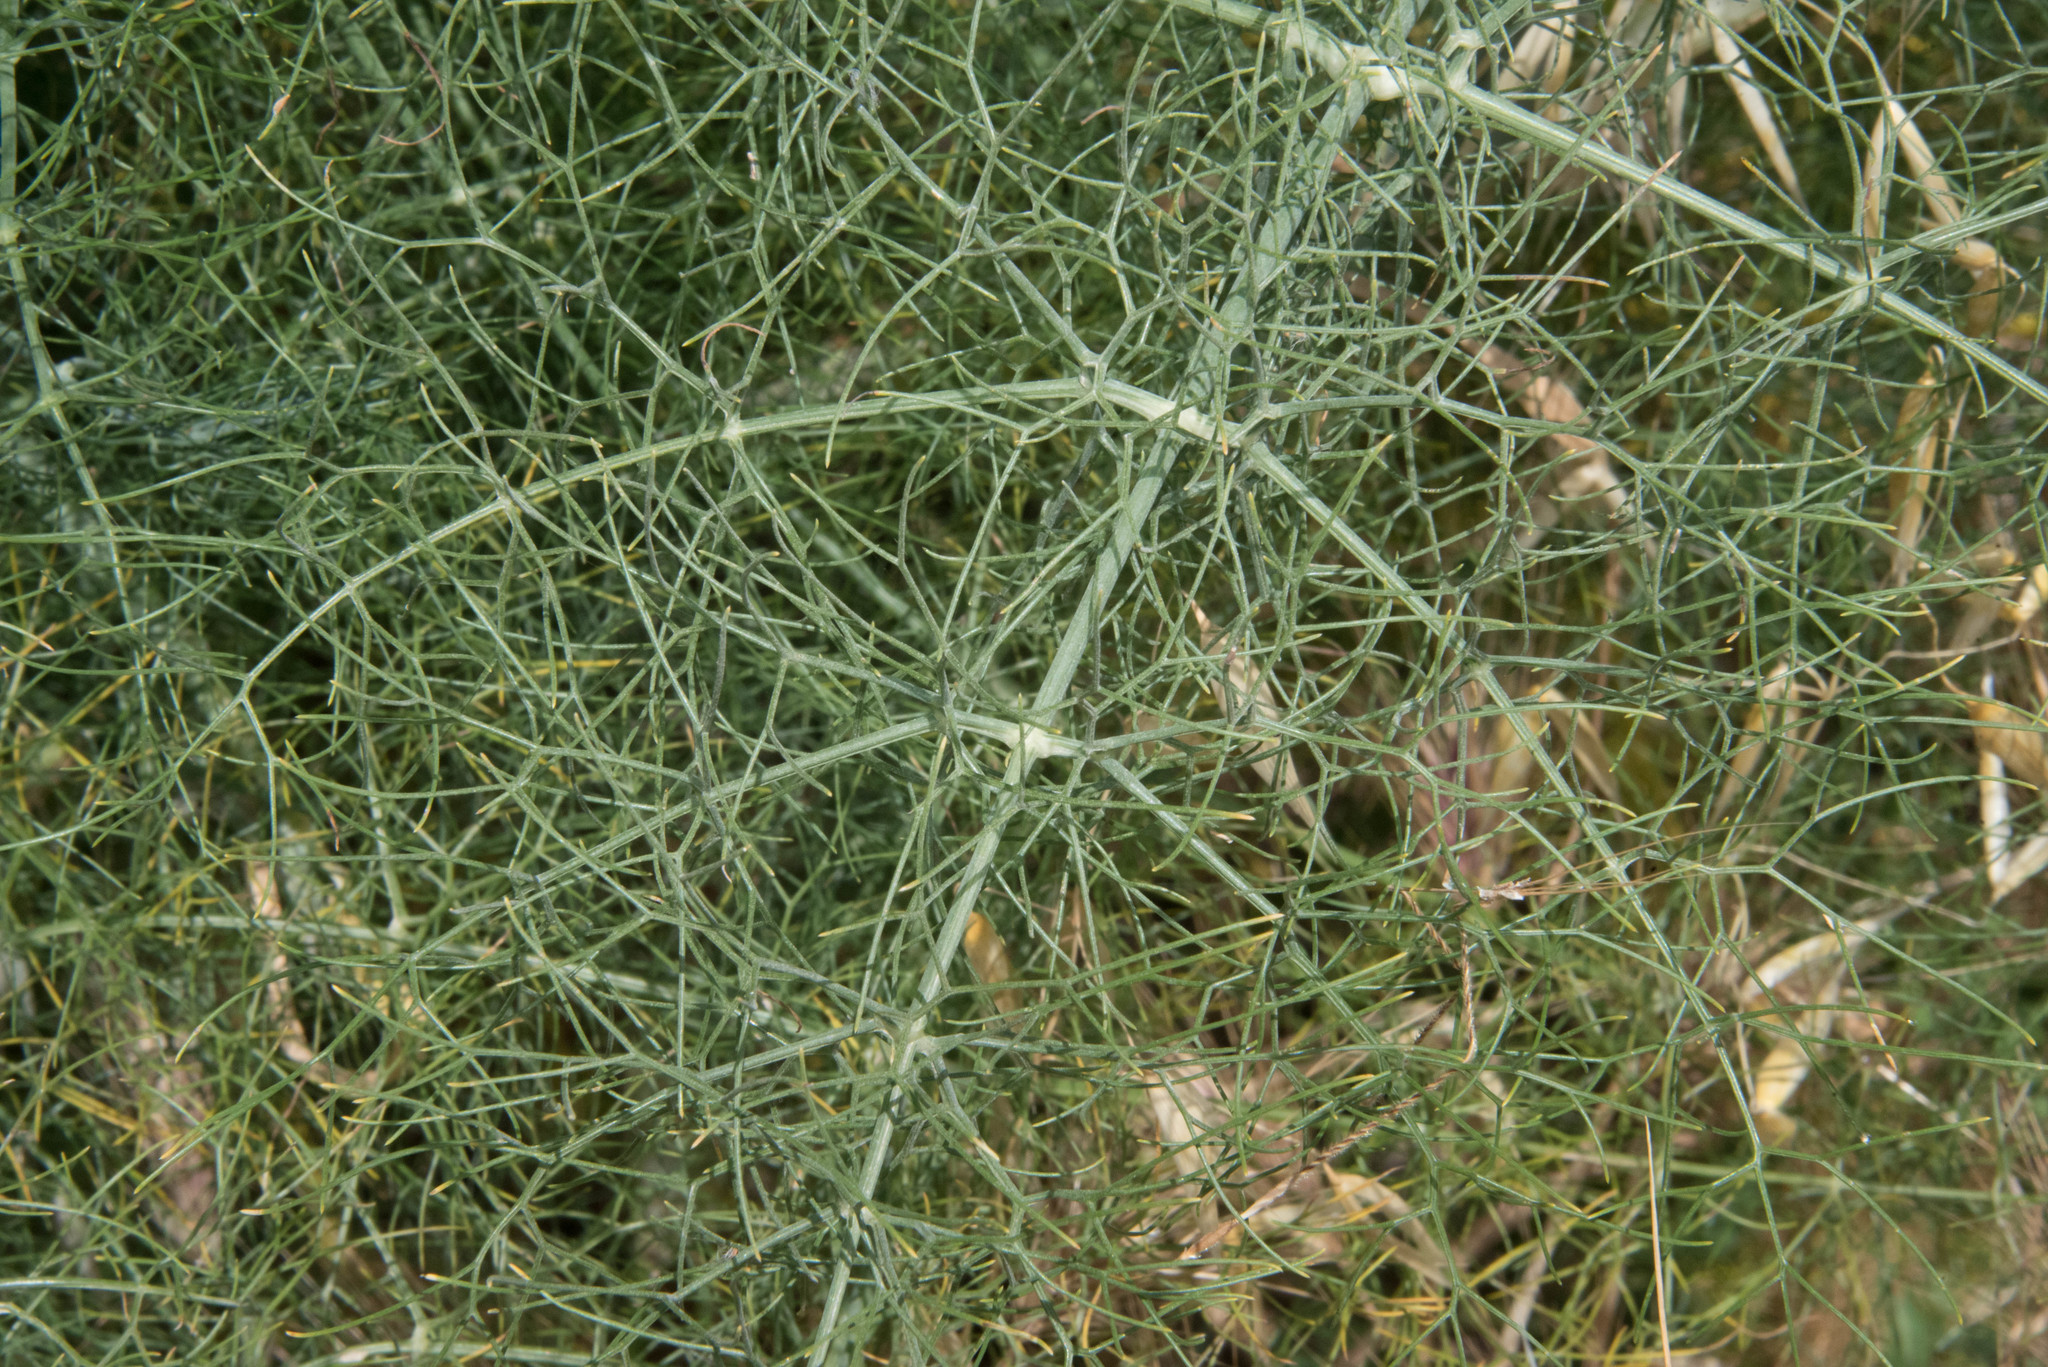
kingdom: Plantae
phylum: Tracheophyta
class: Magnoliopsida
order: Apiales
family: Apiaceae
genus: Foeniculum
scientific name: Foeniculum vulgare
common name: Fennel
